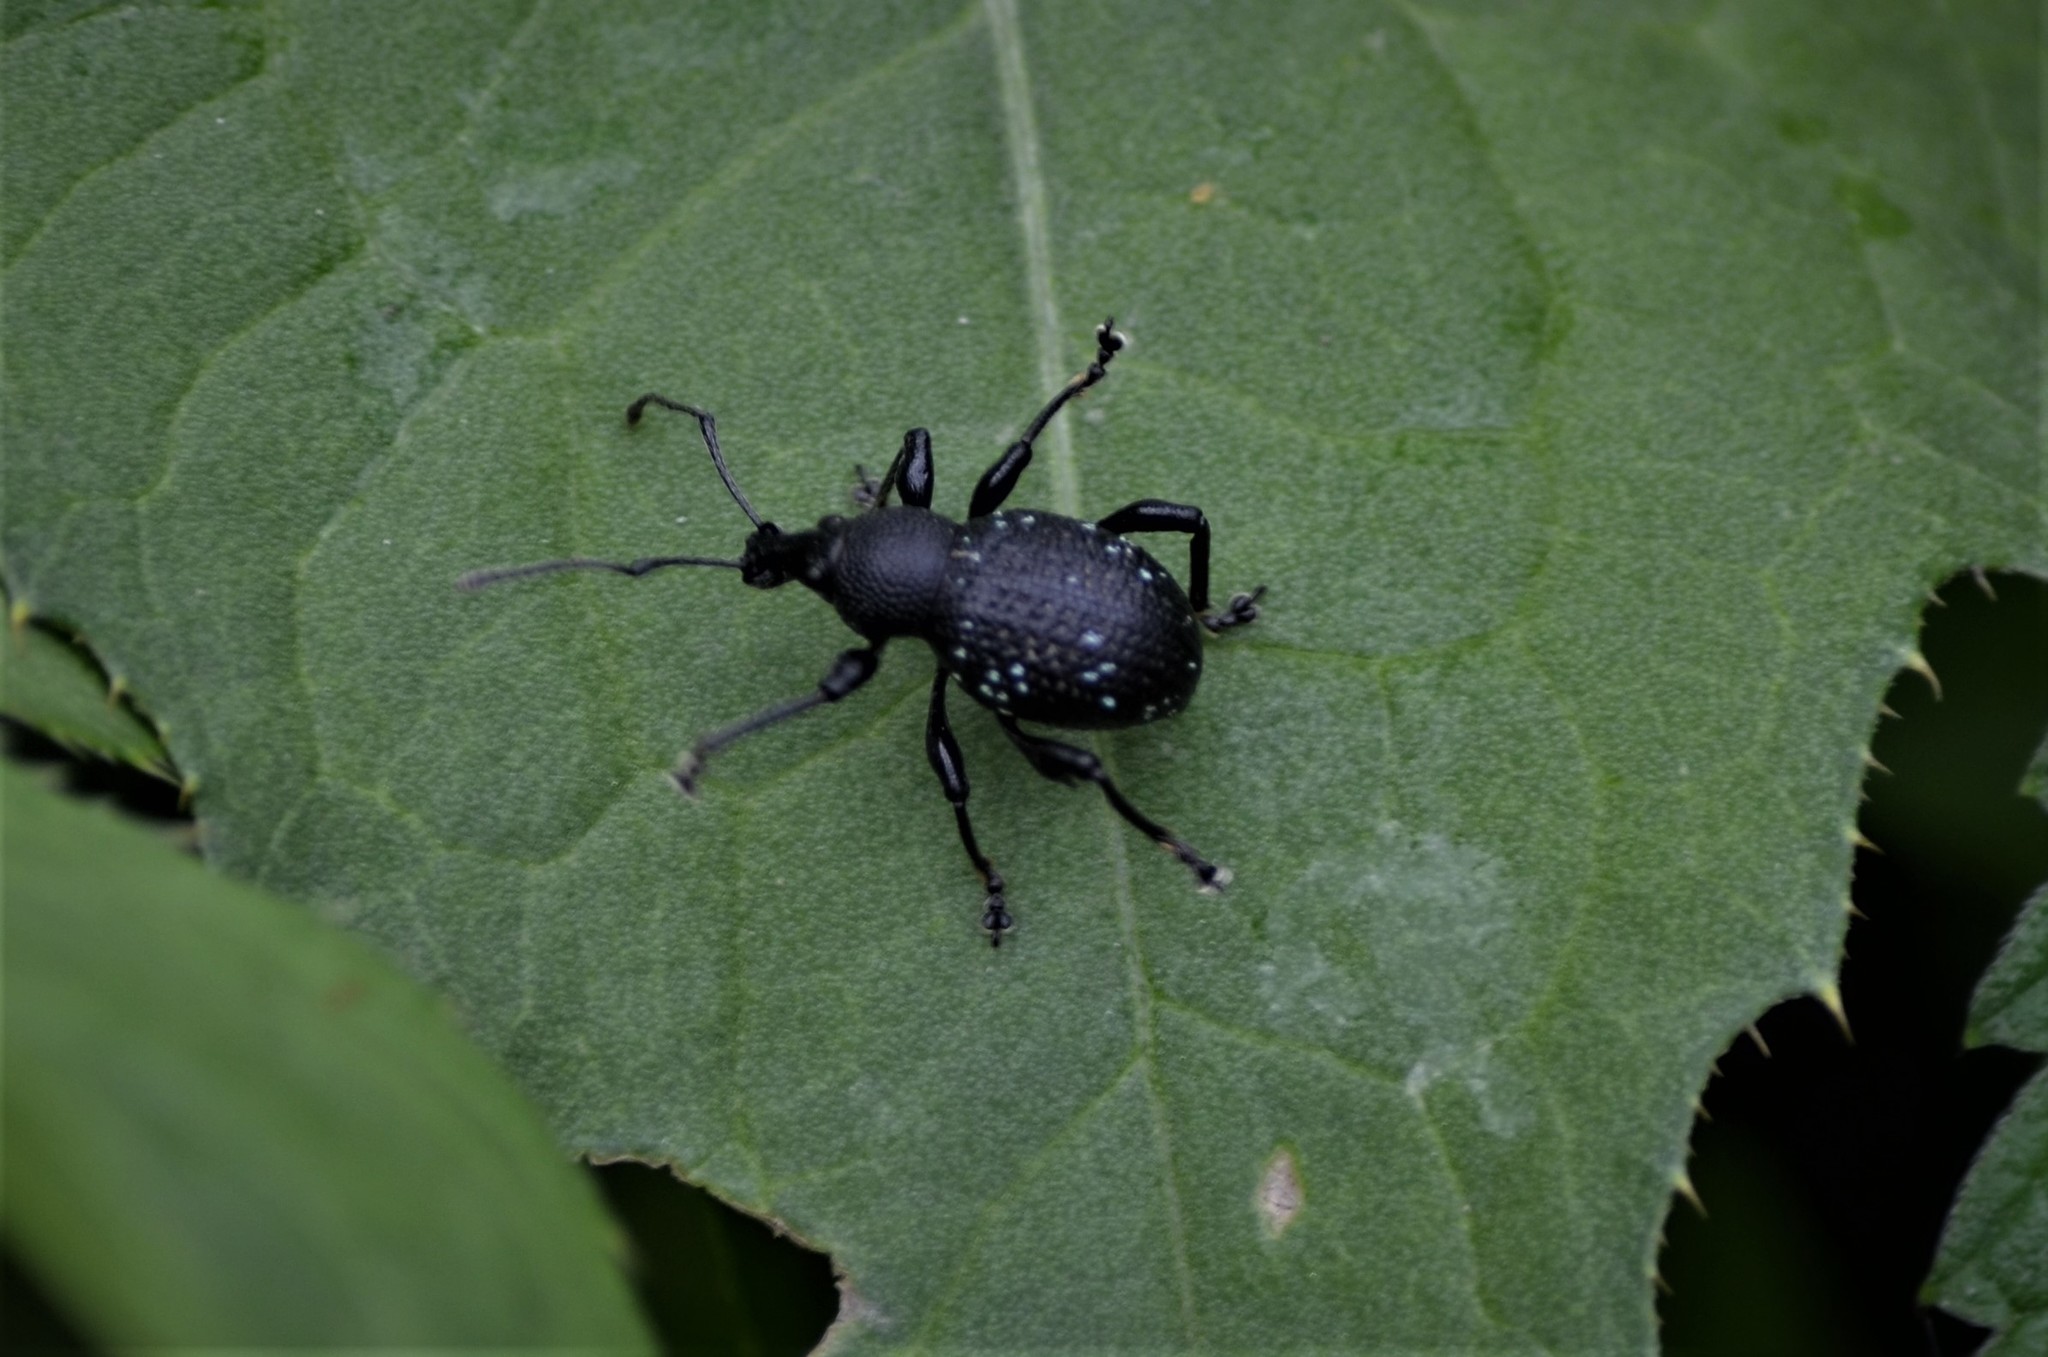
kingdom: Animalia
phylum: Arthropoda
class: Insecta
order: Coleoptera
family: Curculionidae
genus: Otiorhynchus
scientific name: Otiorhynchus gemmatus
